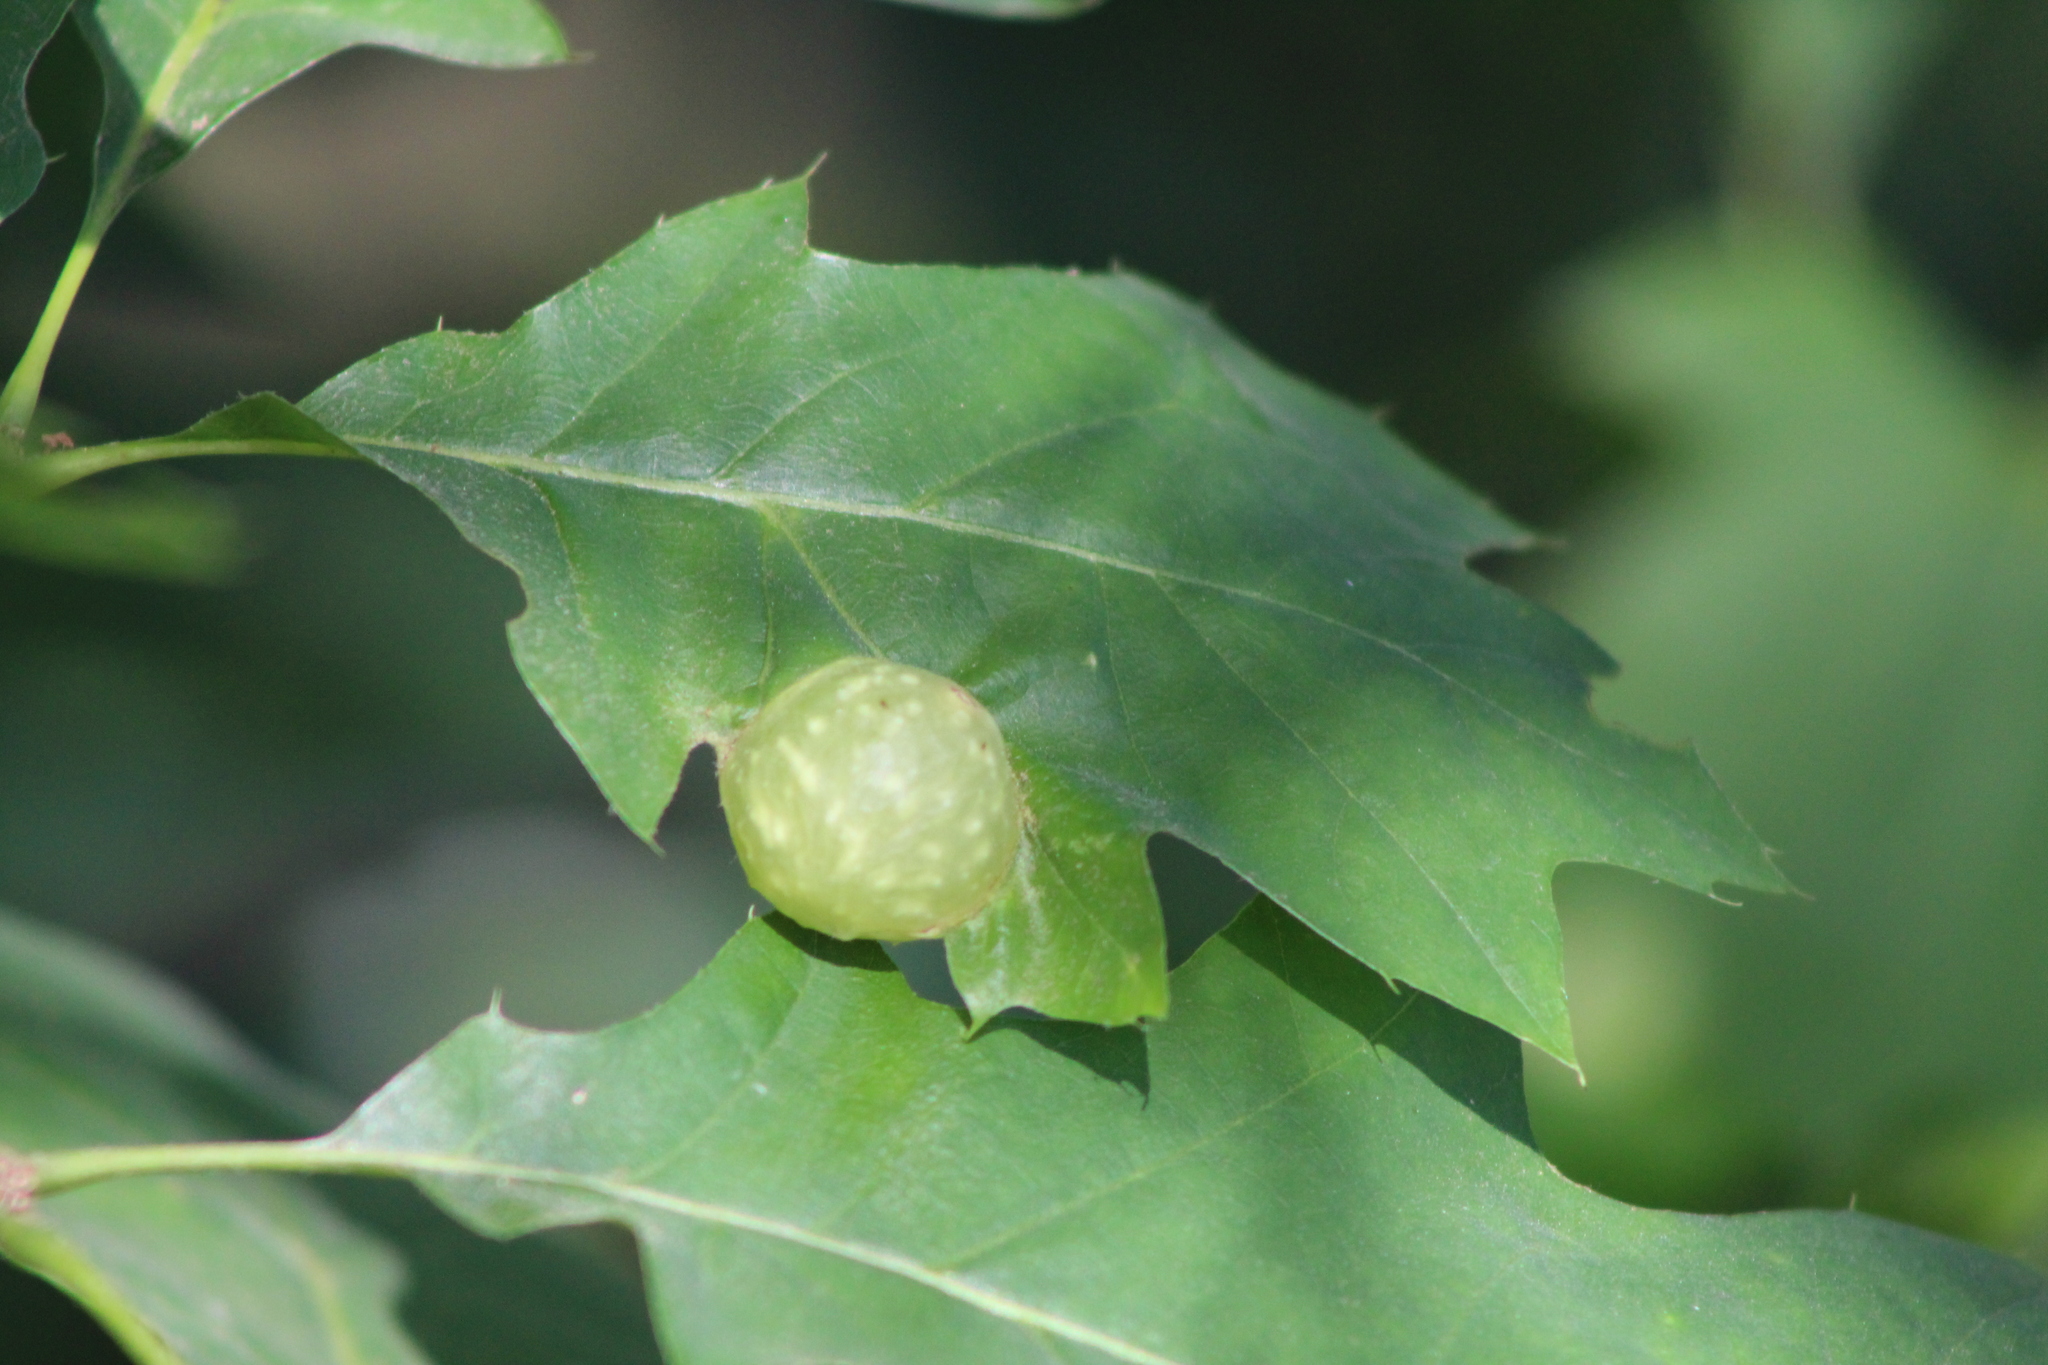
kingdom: Animalia
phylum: Arthropoda
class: Insecta
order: Hymenoptera
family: Cynipidae
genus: Dryocosmus
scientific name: Dryocosmus quercuspalustris
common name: Succulent oak gall wasp
